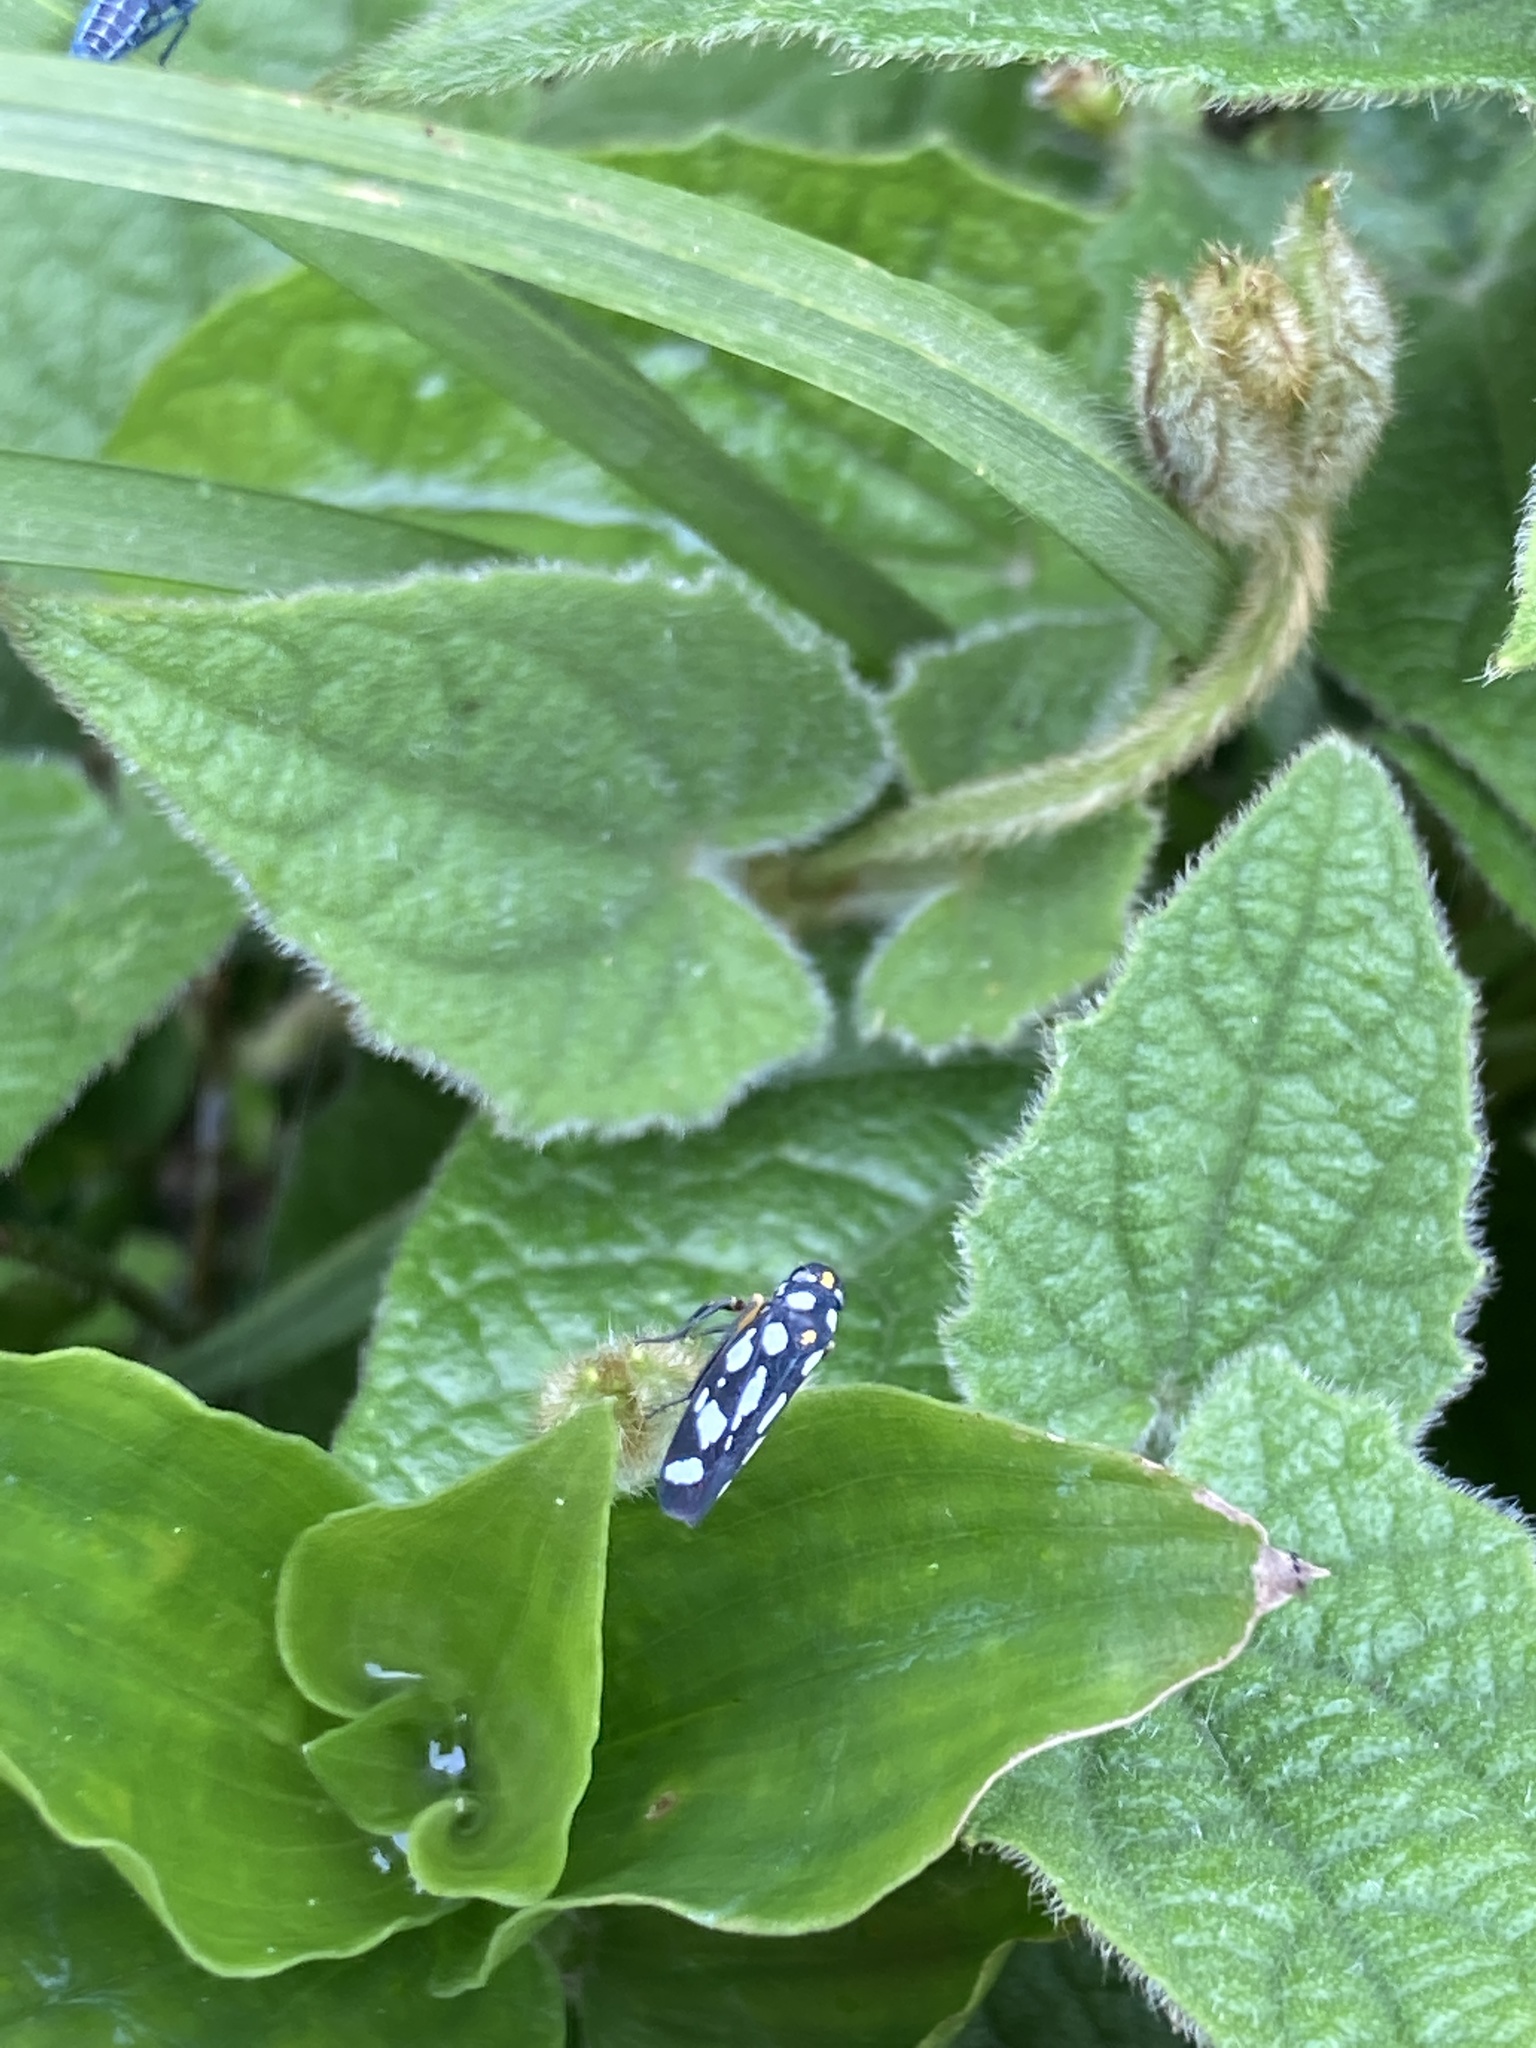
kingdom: Animalia
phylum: Arthropoda
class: Insecta
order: Hemiptera
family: Cicadellidae
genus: Stehlikiana
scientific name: Stehlikiana crassa
